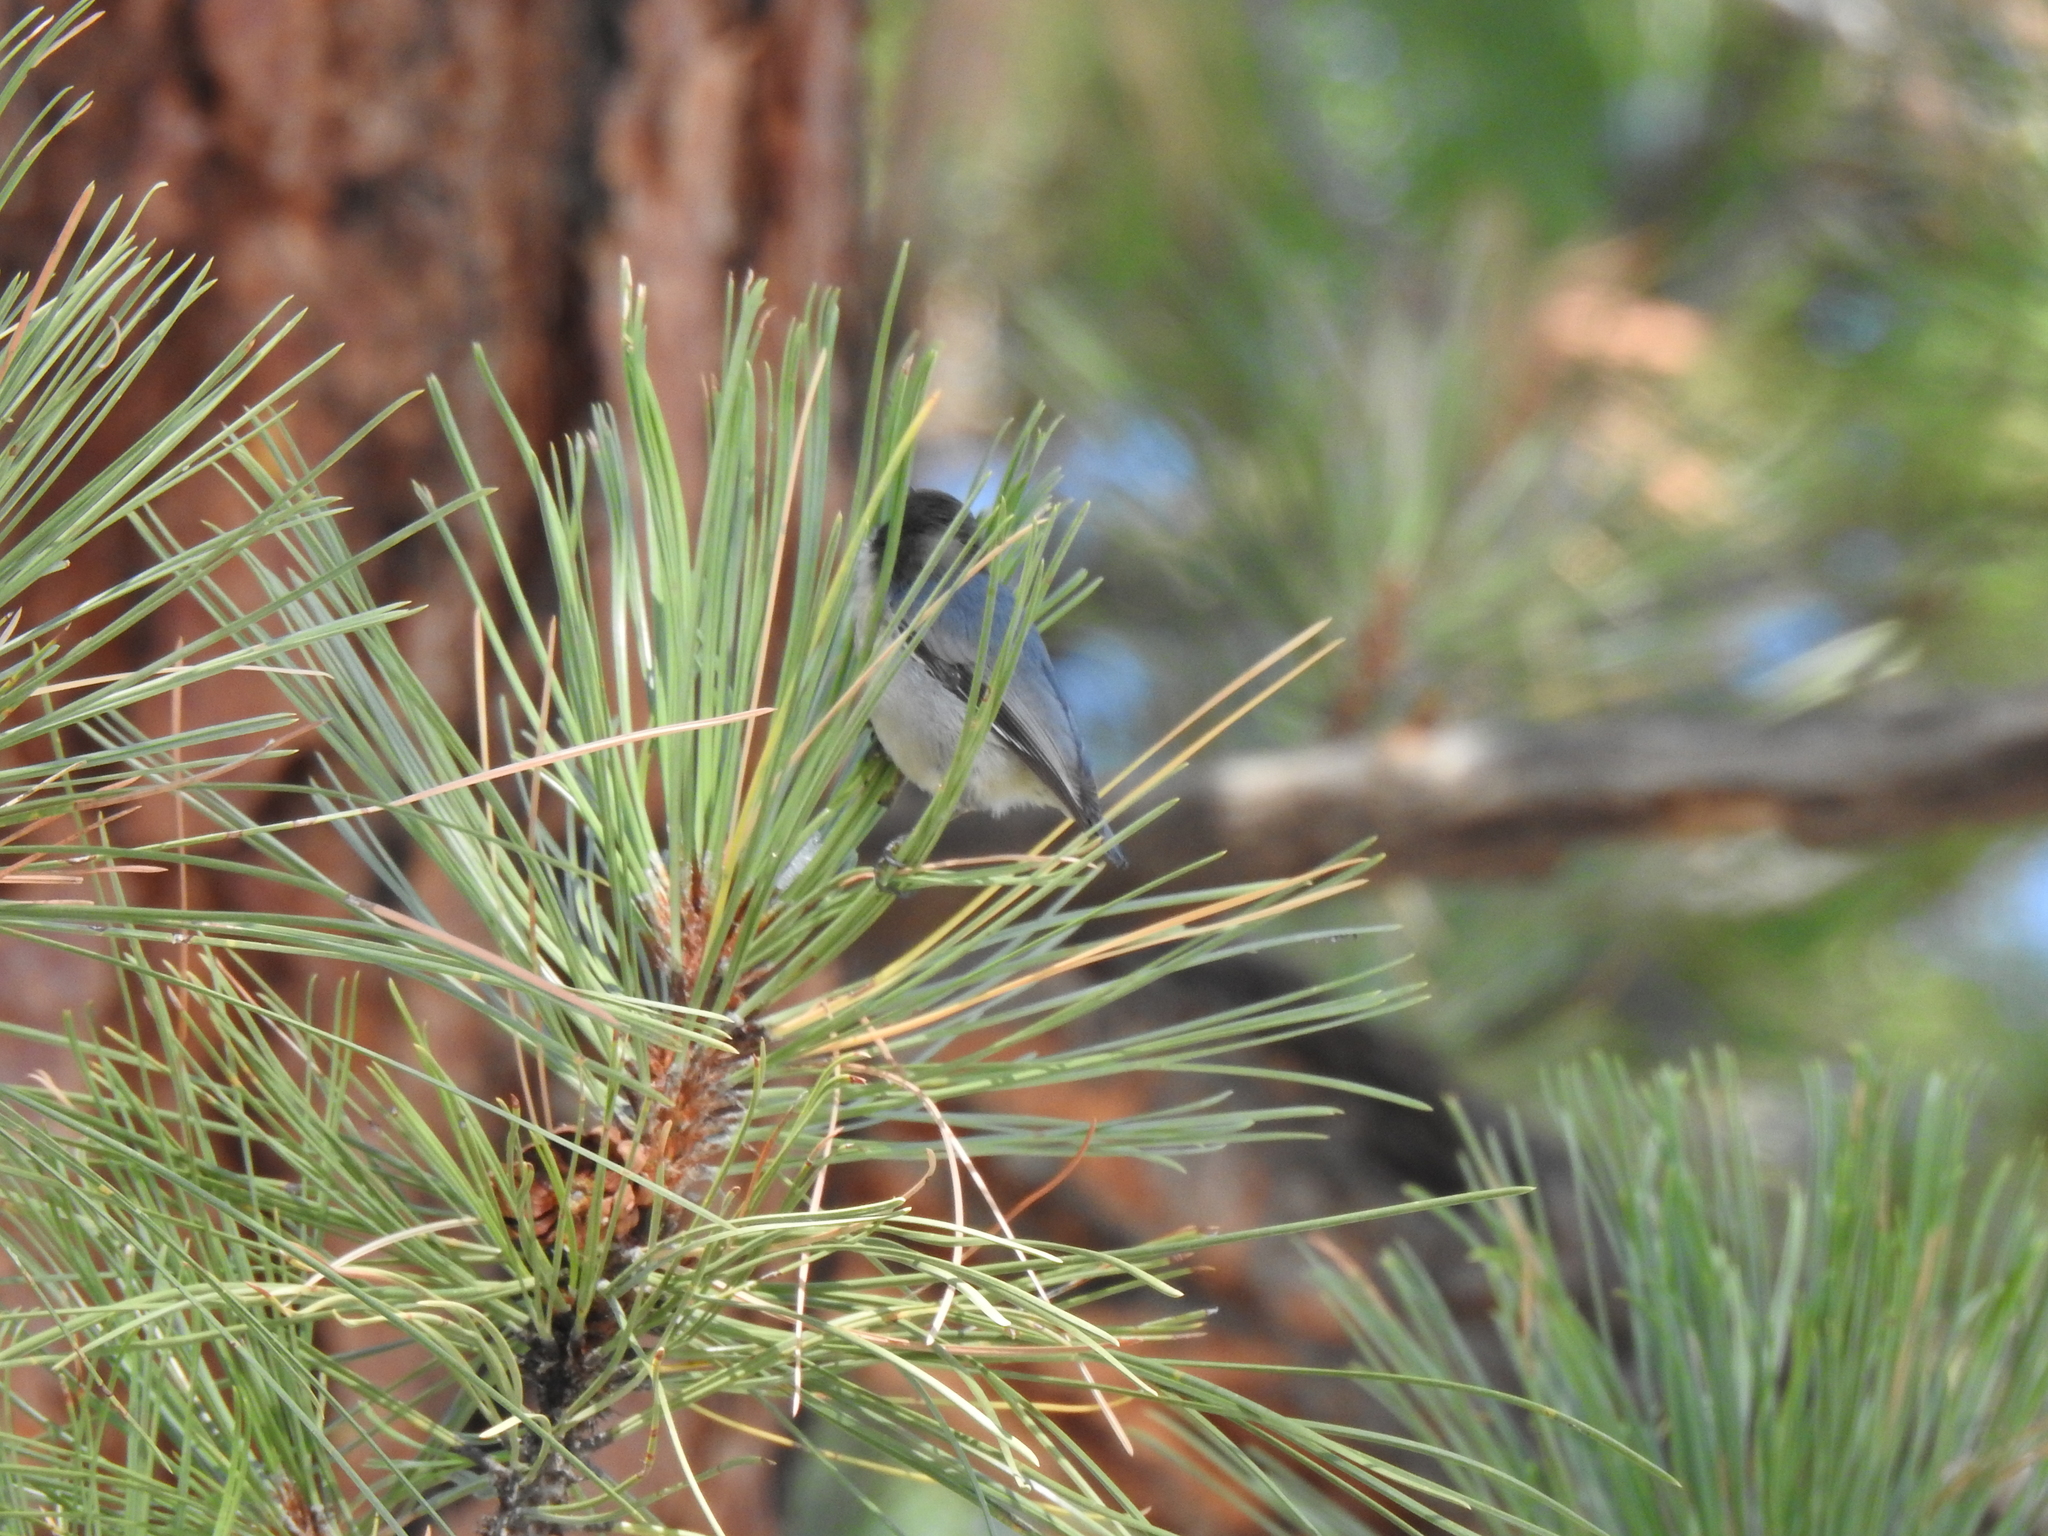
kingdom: Animalia
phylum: Chordata
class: Aves
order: Passeriformes
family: Sittidae
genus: Sitta
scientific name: Sitta pygmaea
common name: Pygmy nuthatch
